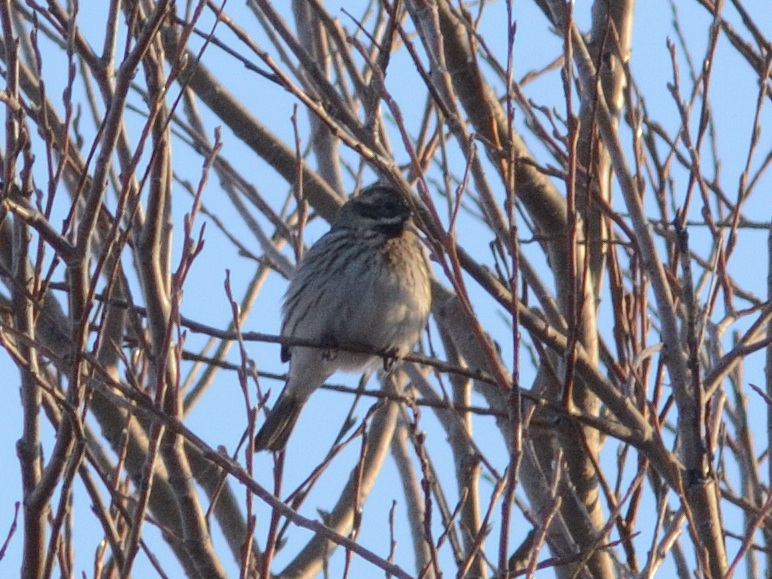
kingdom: Animalia
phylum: Chordata
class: Aves
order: Passeriformes
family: Emberizidae
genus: Emberiza
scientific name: Emberiza schoeniclus
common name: Reed bunting
